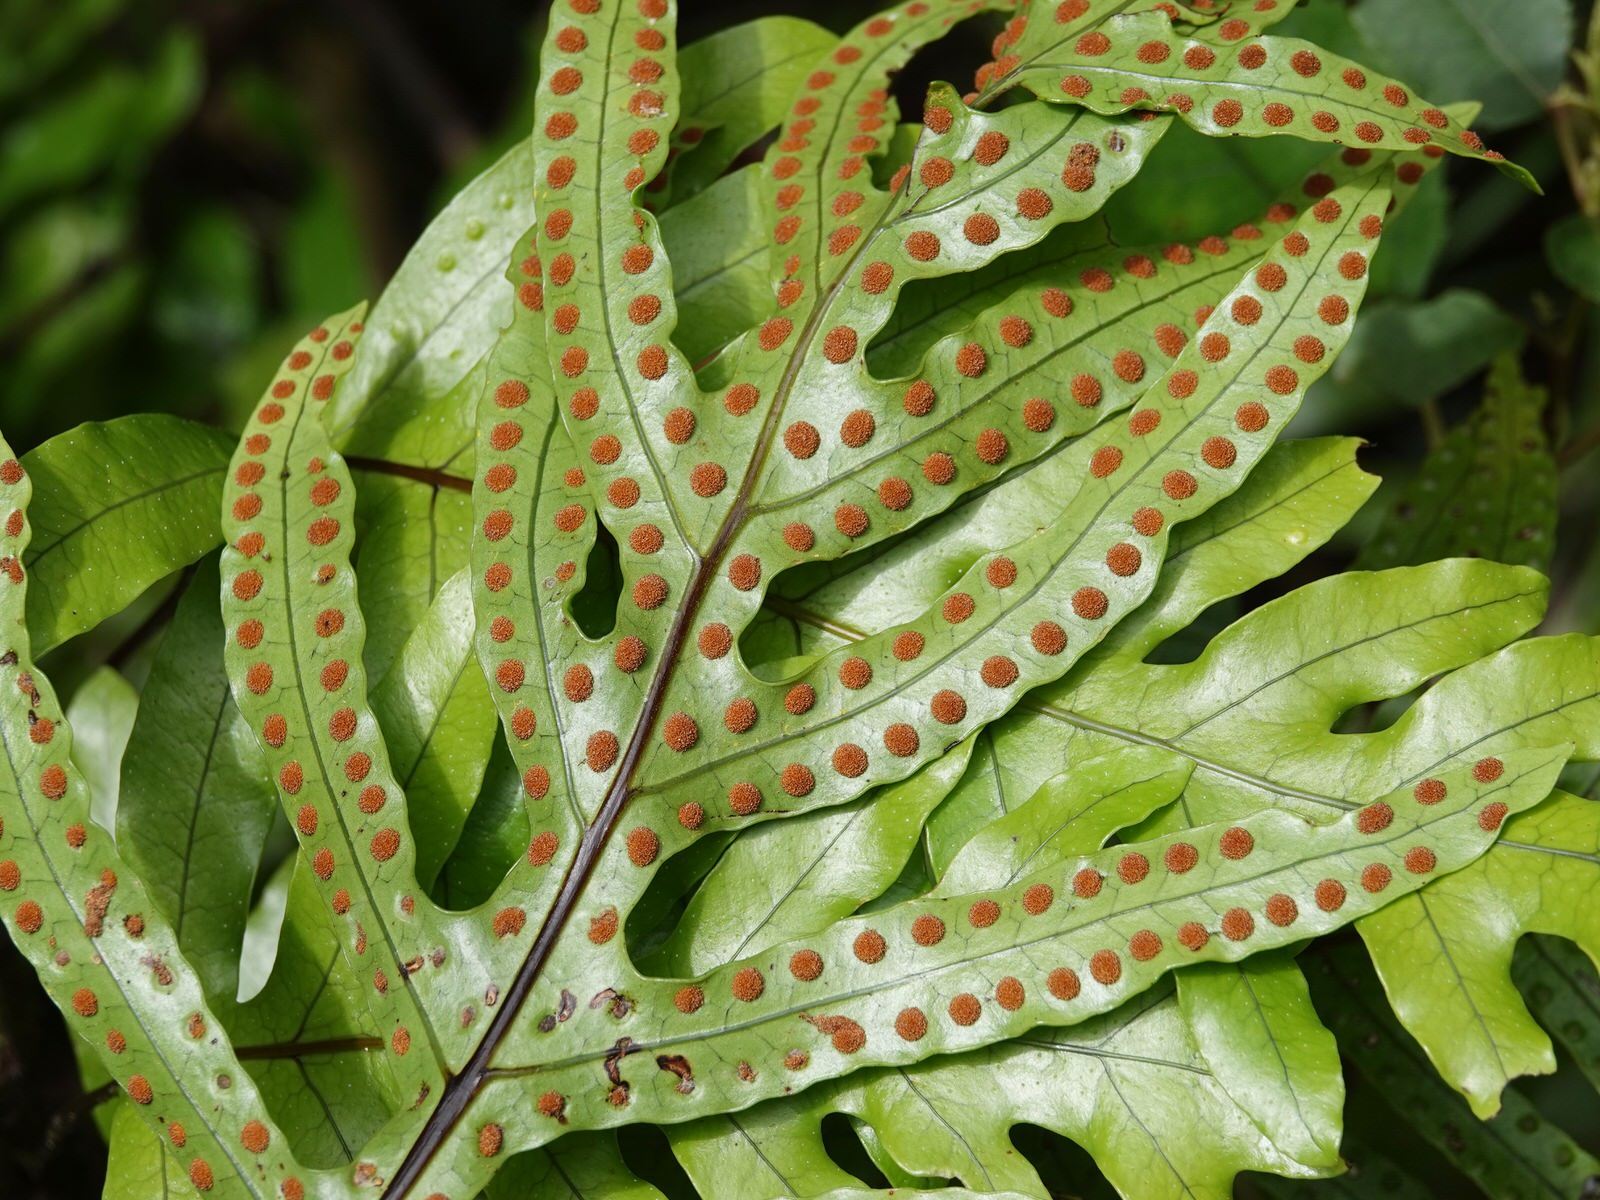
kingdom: Plantae
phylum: Tracheophyta
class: Polypodiopsida
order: Polypodiales
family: Polypodiaceae
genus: Lecanopteris
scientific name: Lecanopteris pustulata
